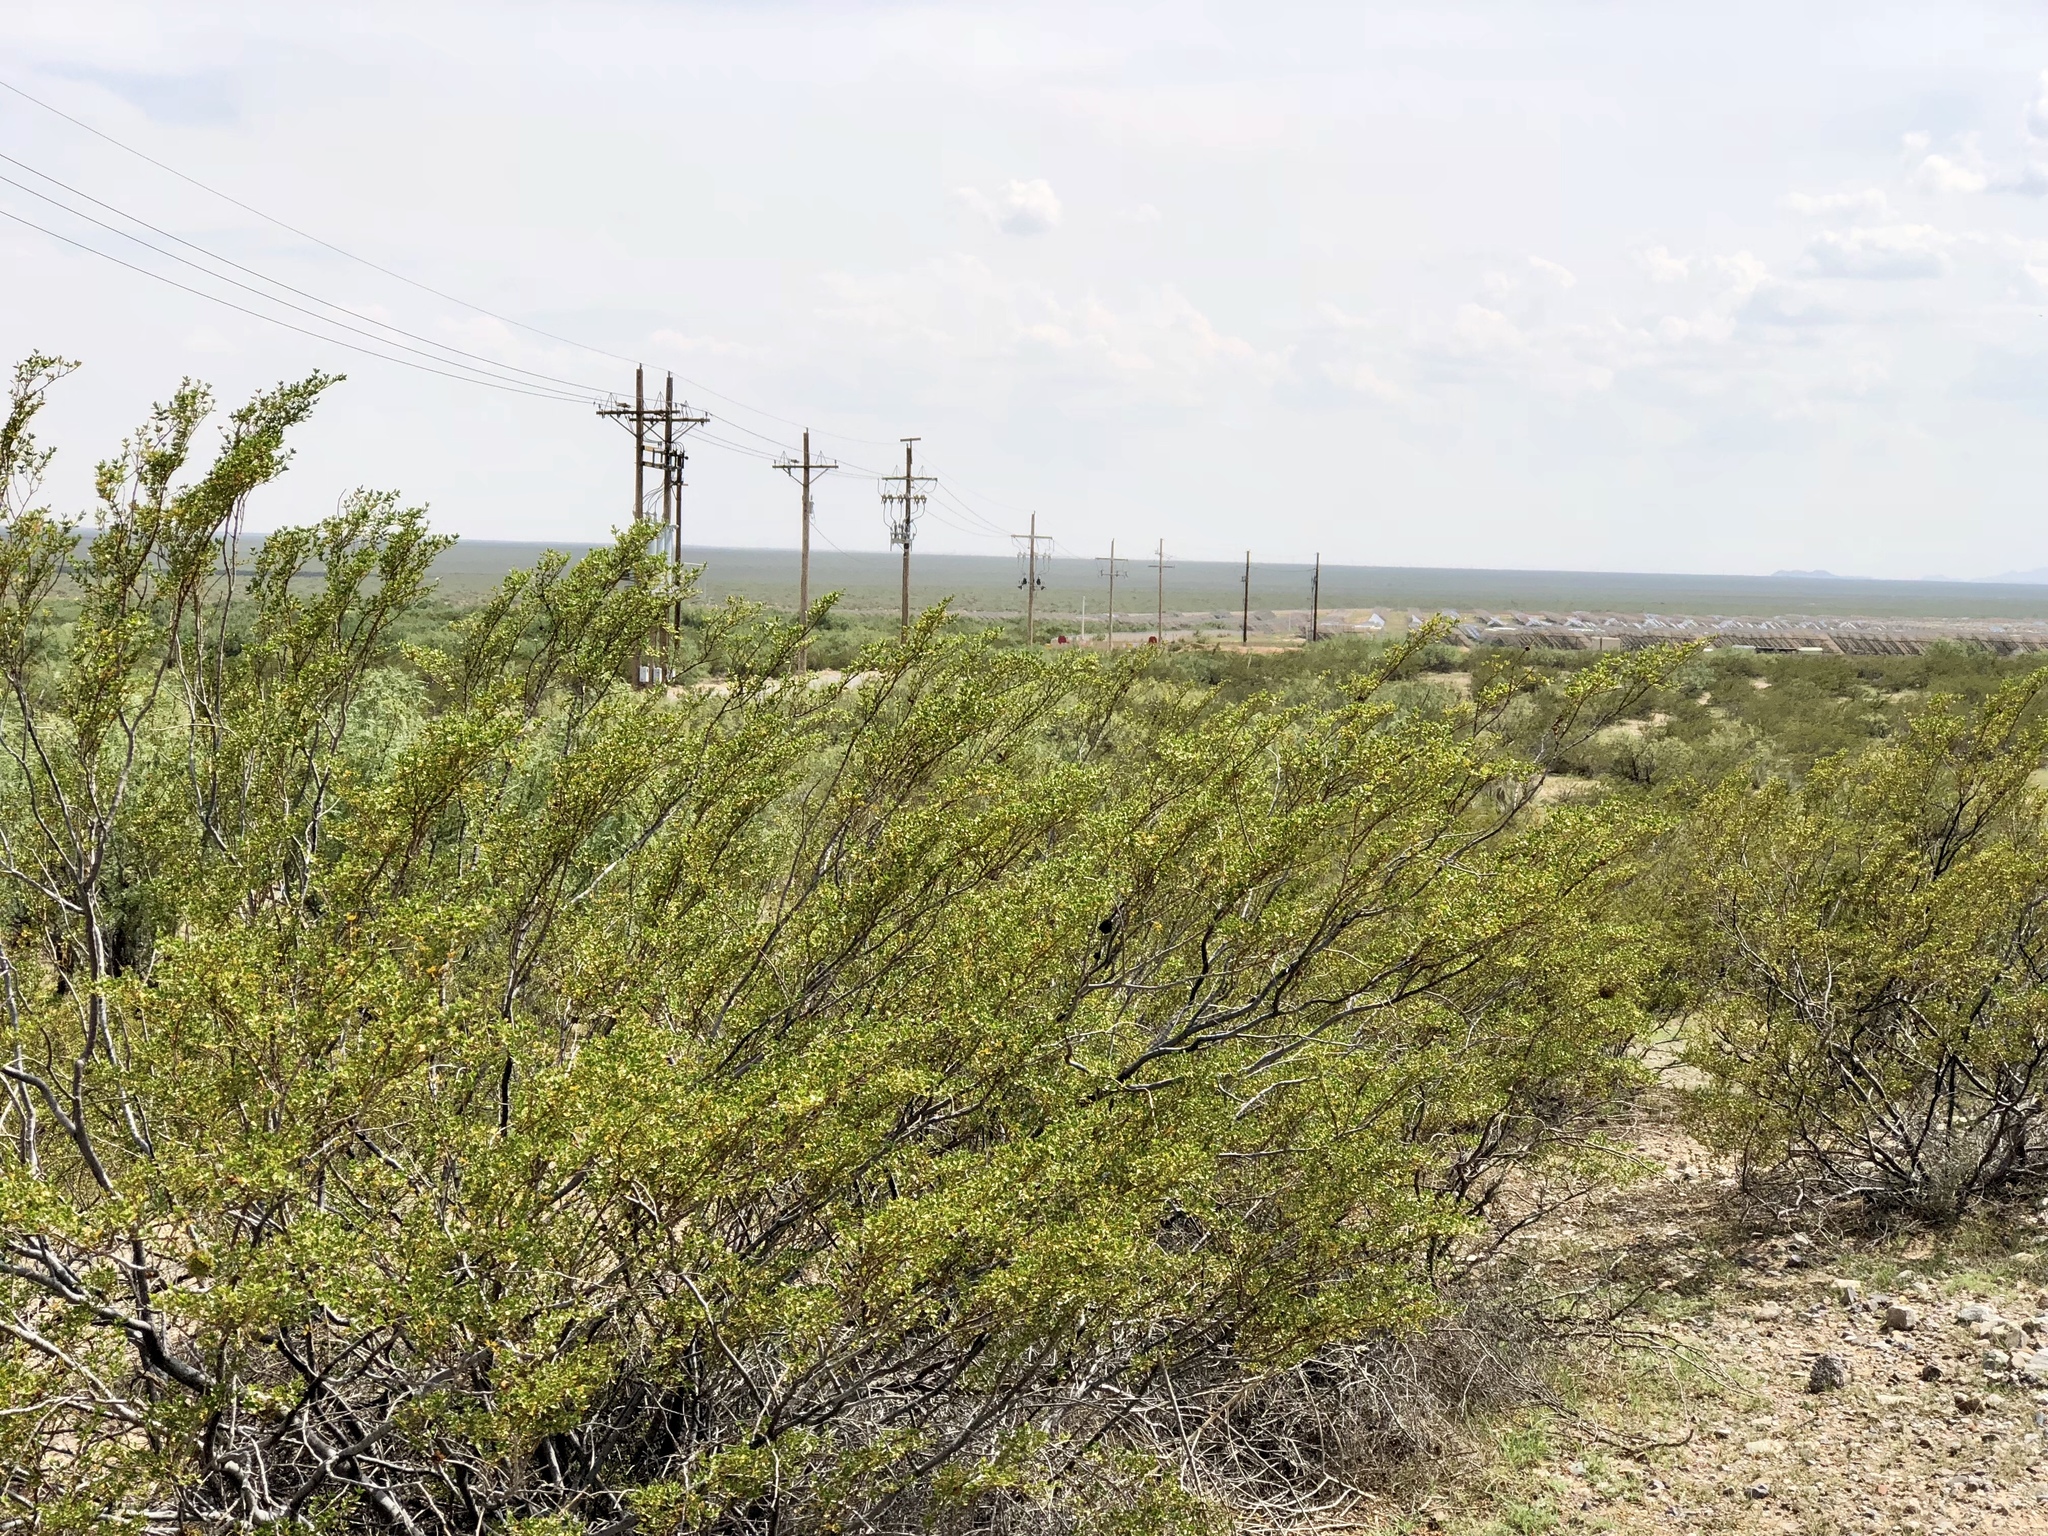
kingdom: Plantae
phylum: Tracheophyta
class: Magnoliopsida
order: Zygophyllales
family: Zygophyllaceae
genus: Larrea
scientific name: Larrea tridentata
